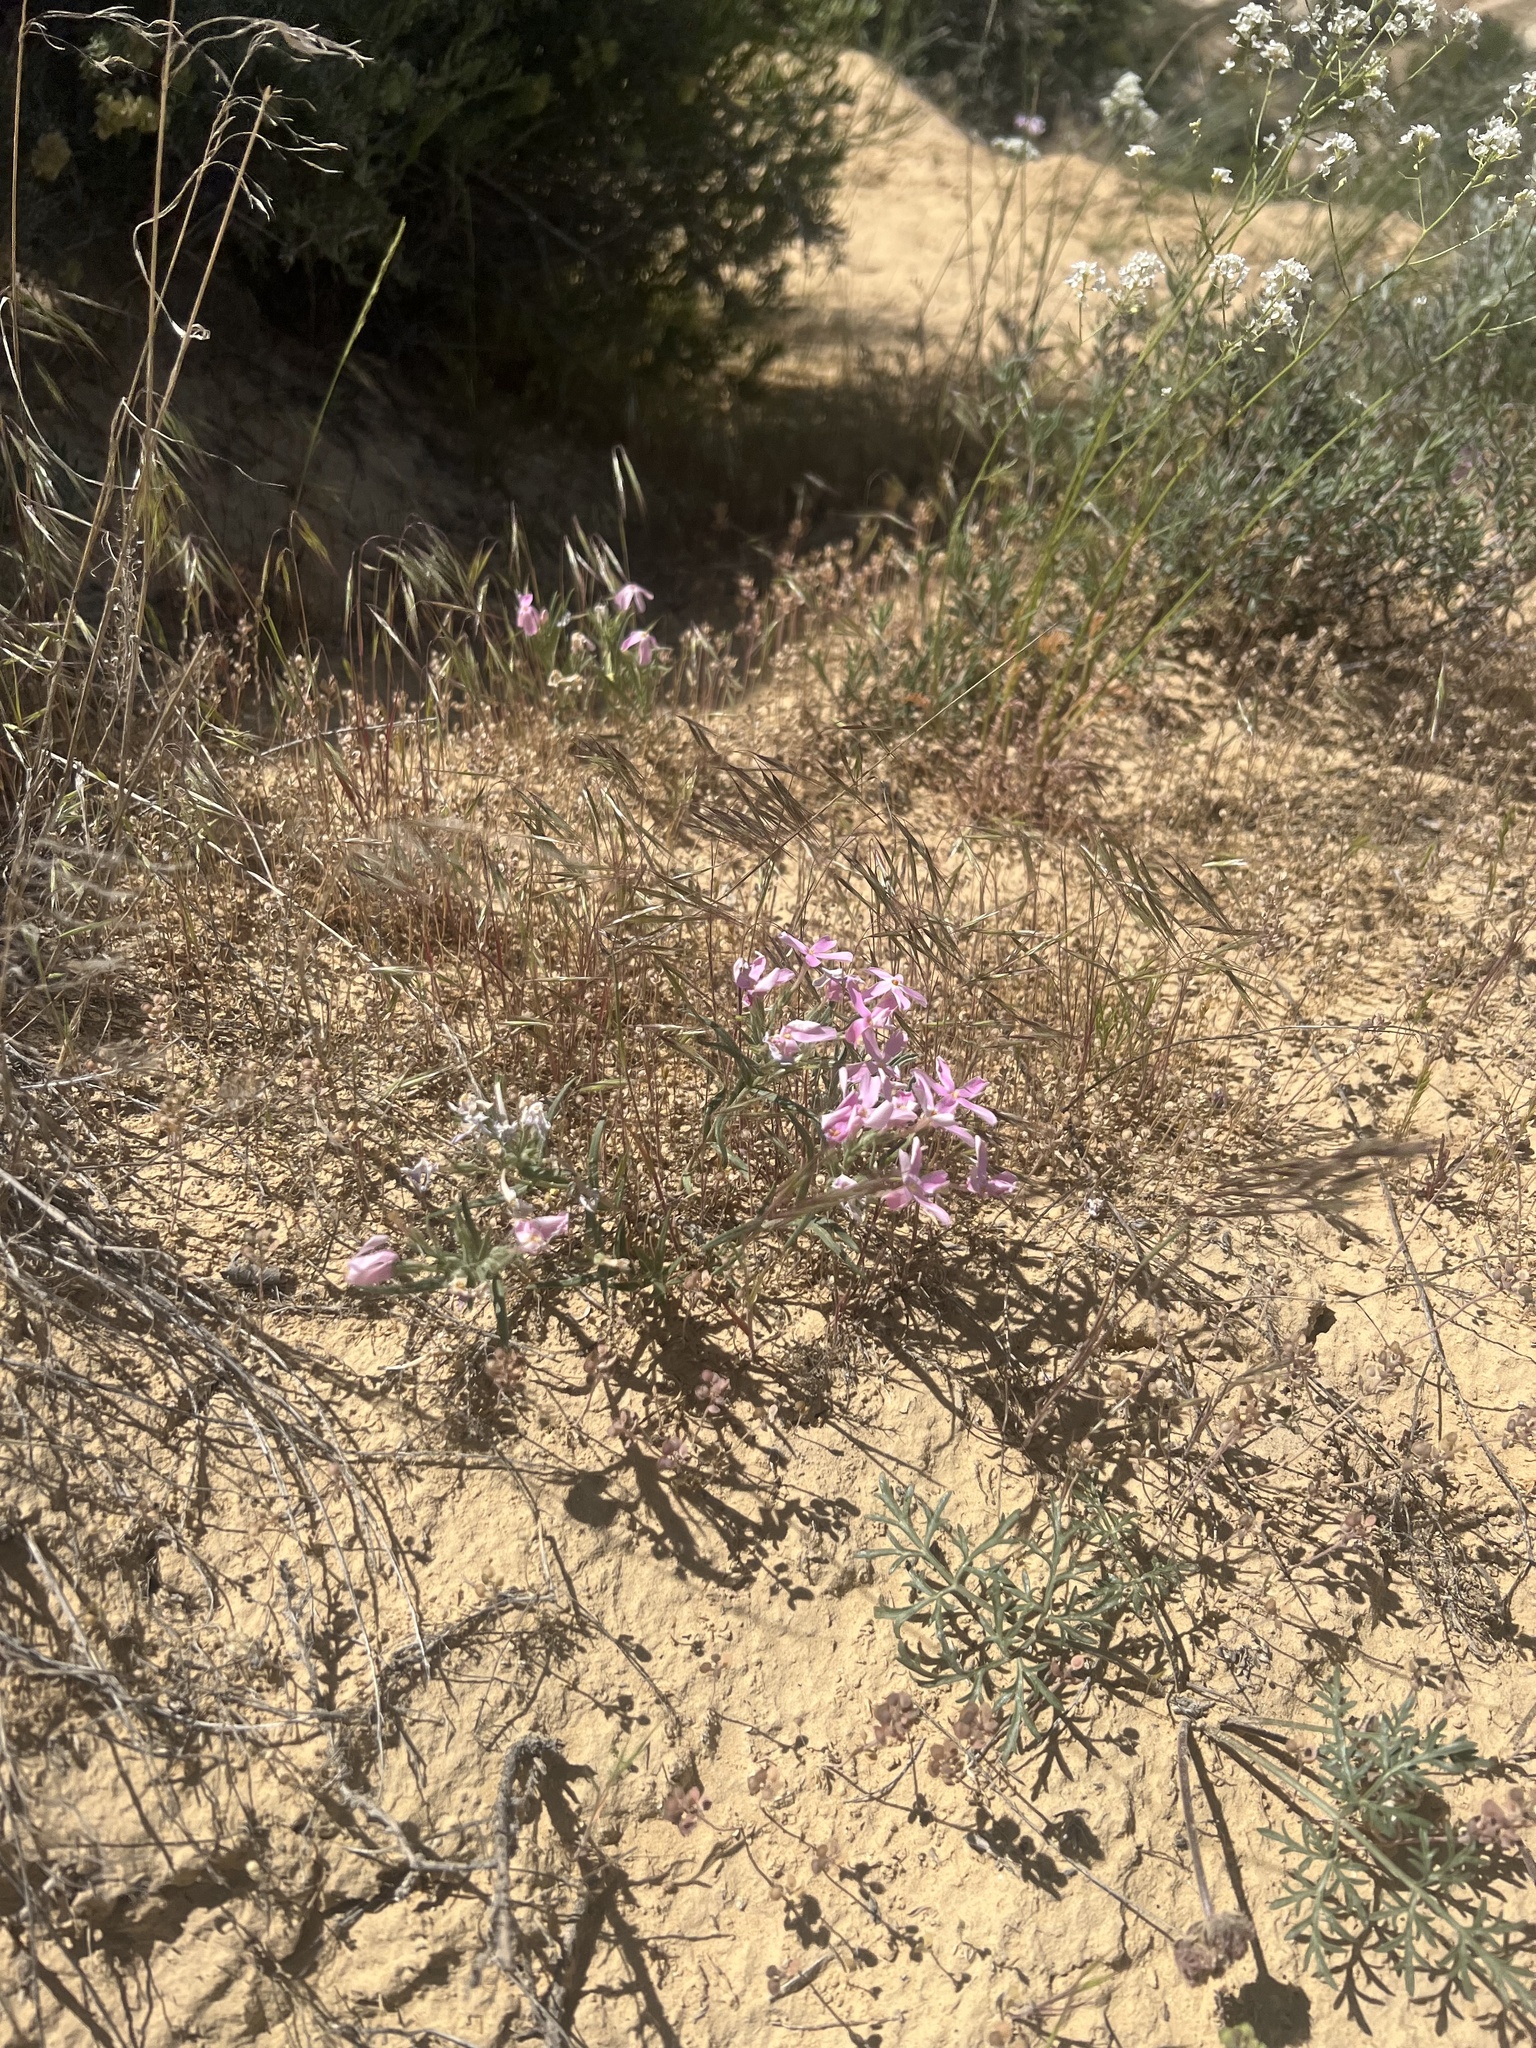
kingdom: Plantae
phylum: Tracheophyta
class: Magnoliopsida
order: Ericales
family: Polemoniaceae
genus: Phlox
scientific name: Phlox longifolia
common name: Longleaf phlox
